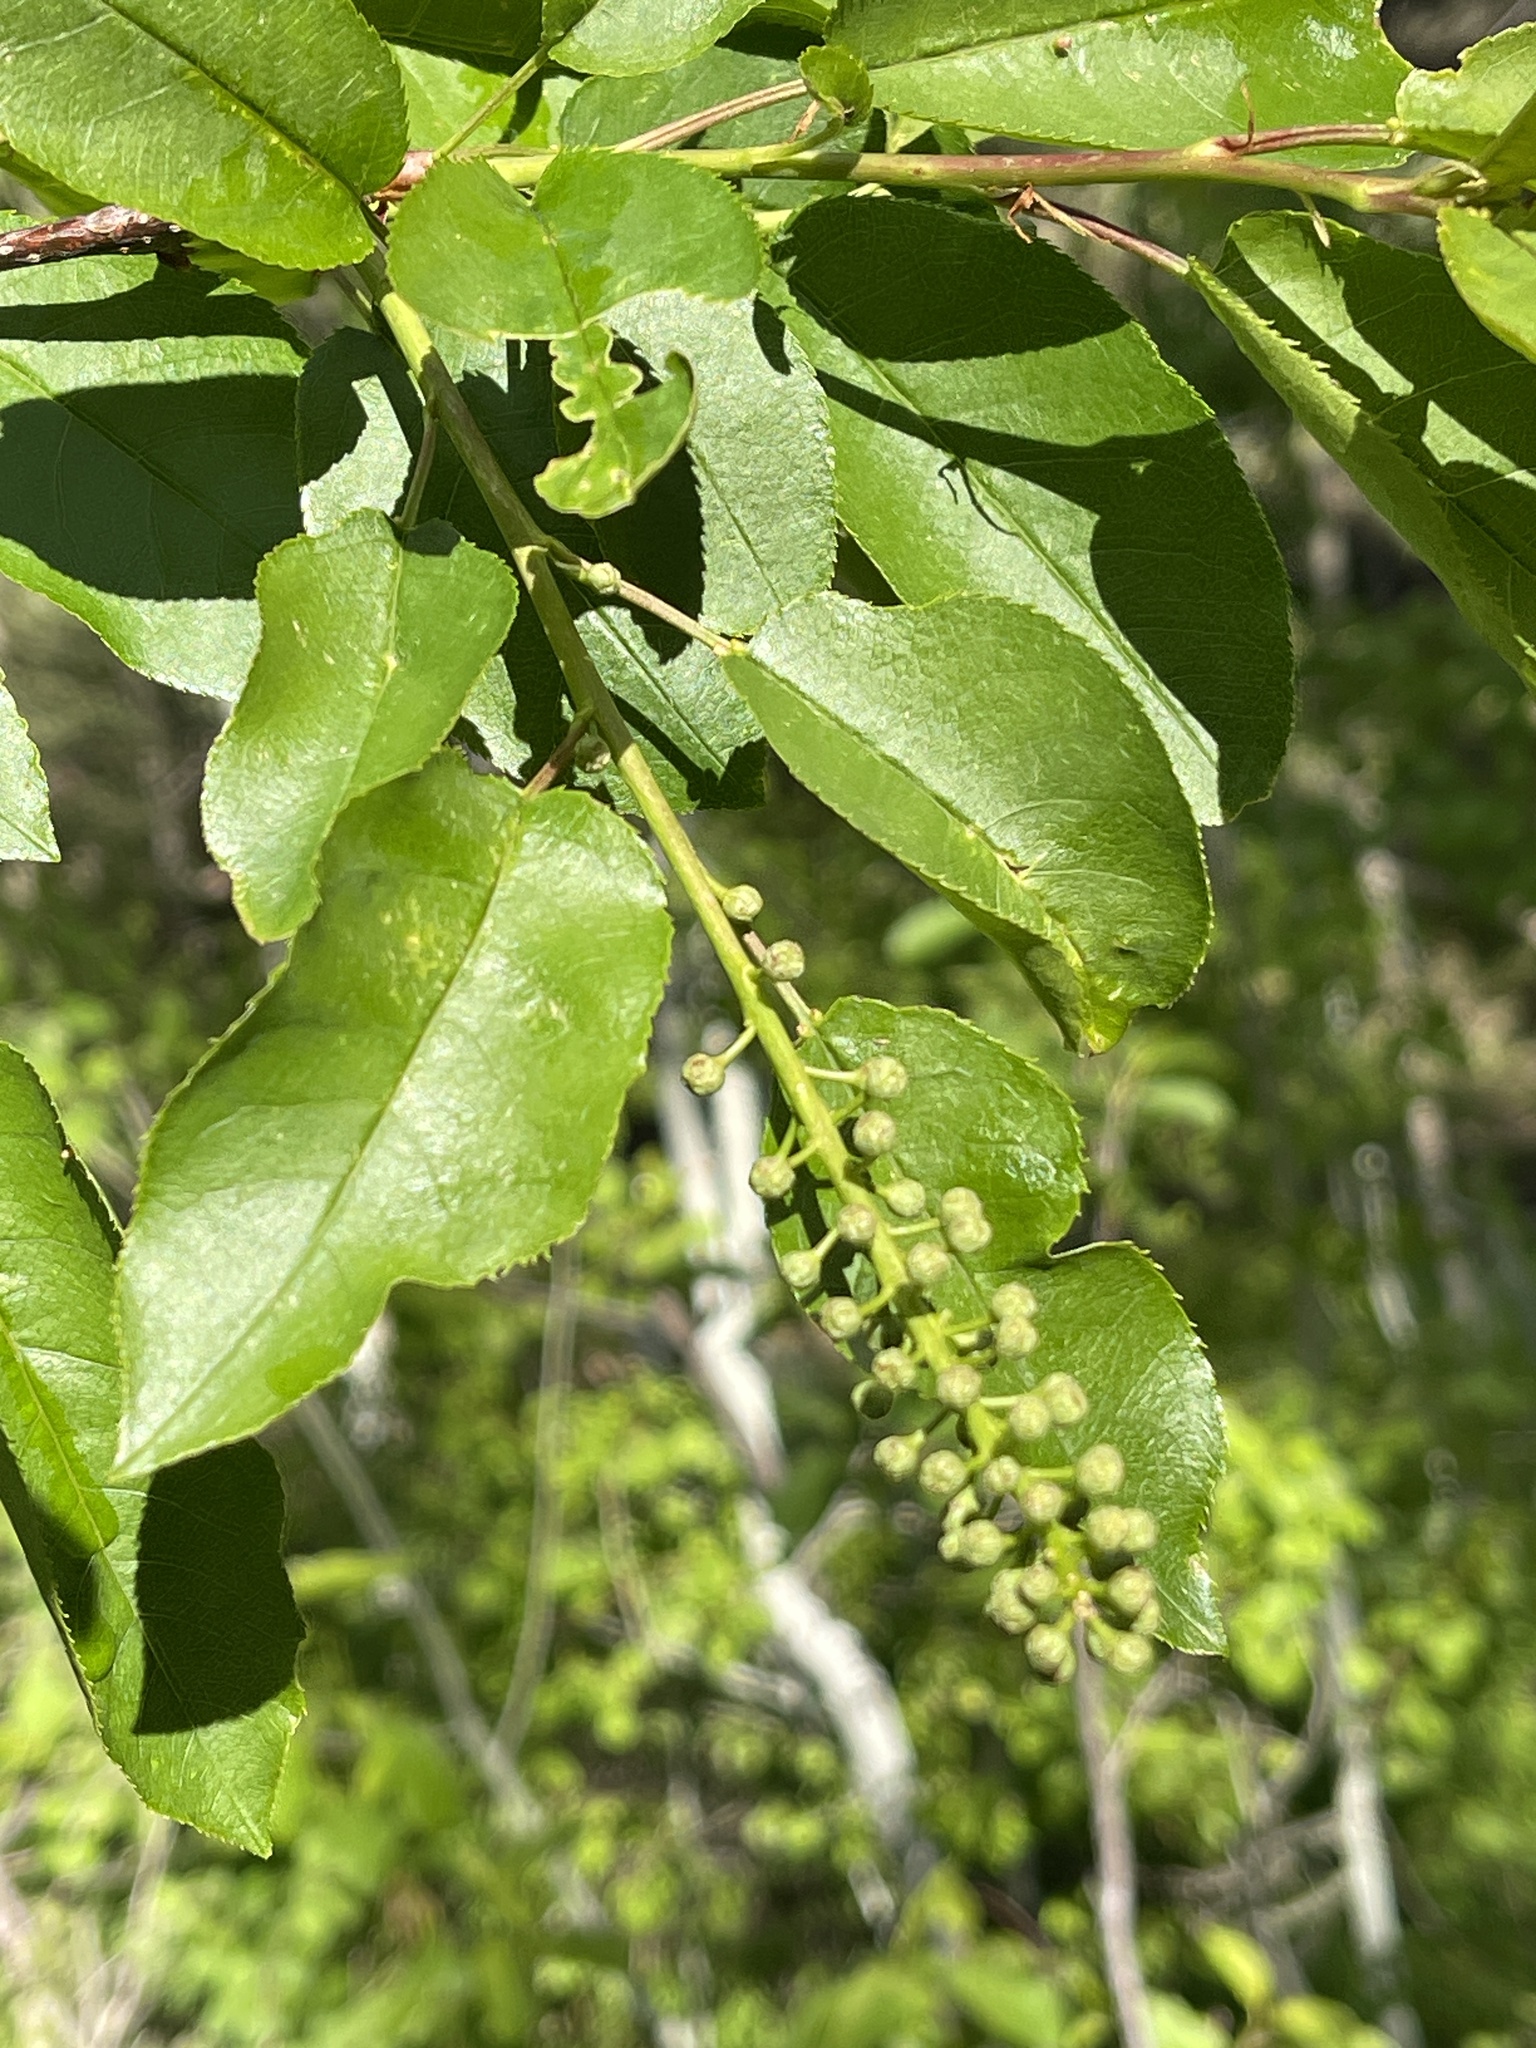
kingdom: Plantae
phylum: Tracheophyta
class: Magnoliopsida
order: Rosales
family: Rosaceae
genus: Prunus
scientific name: Prunus virginiana
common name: Chokecherry
